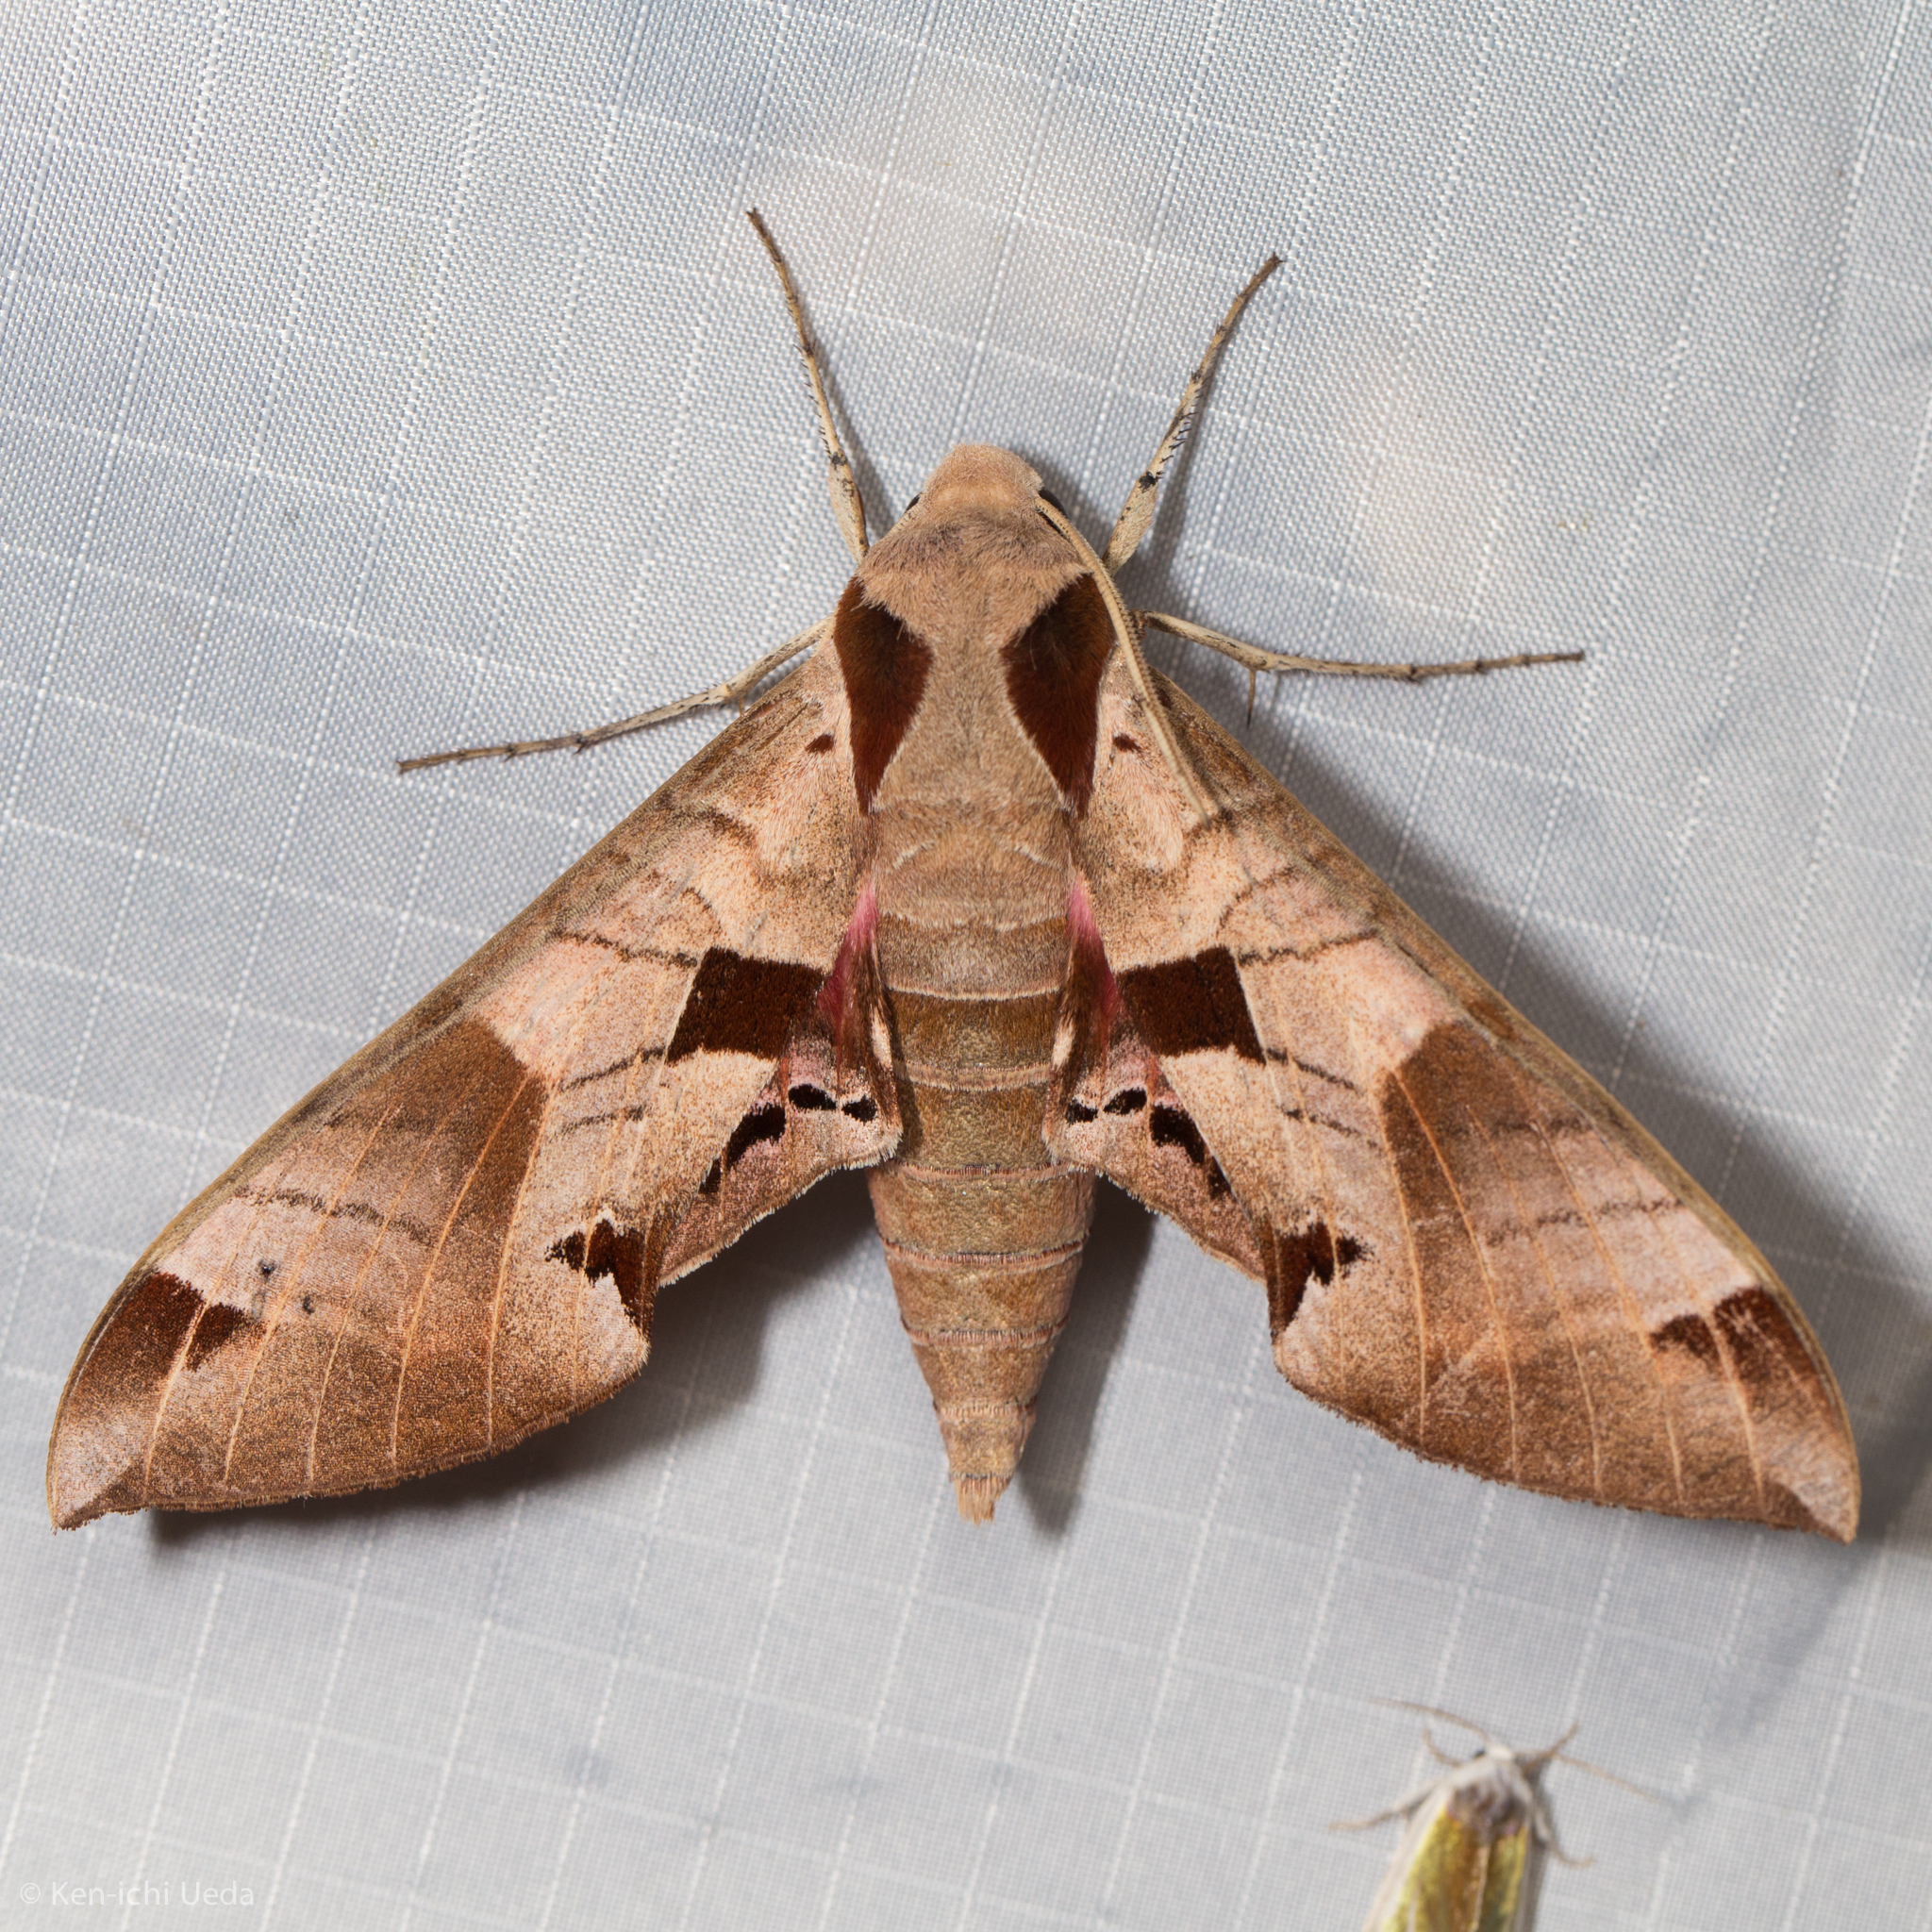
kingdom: Animalia
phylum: Arthropoda
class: Insecta
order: Lepidoptera
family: Sphingidae
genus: Eumorpha
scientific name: Eumorpha achemon
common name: Achemon sphinx
